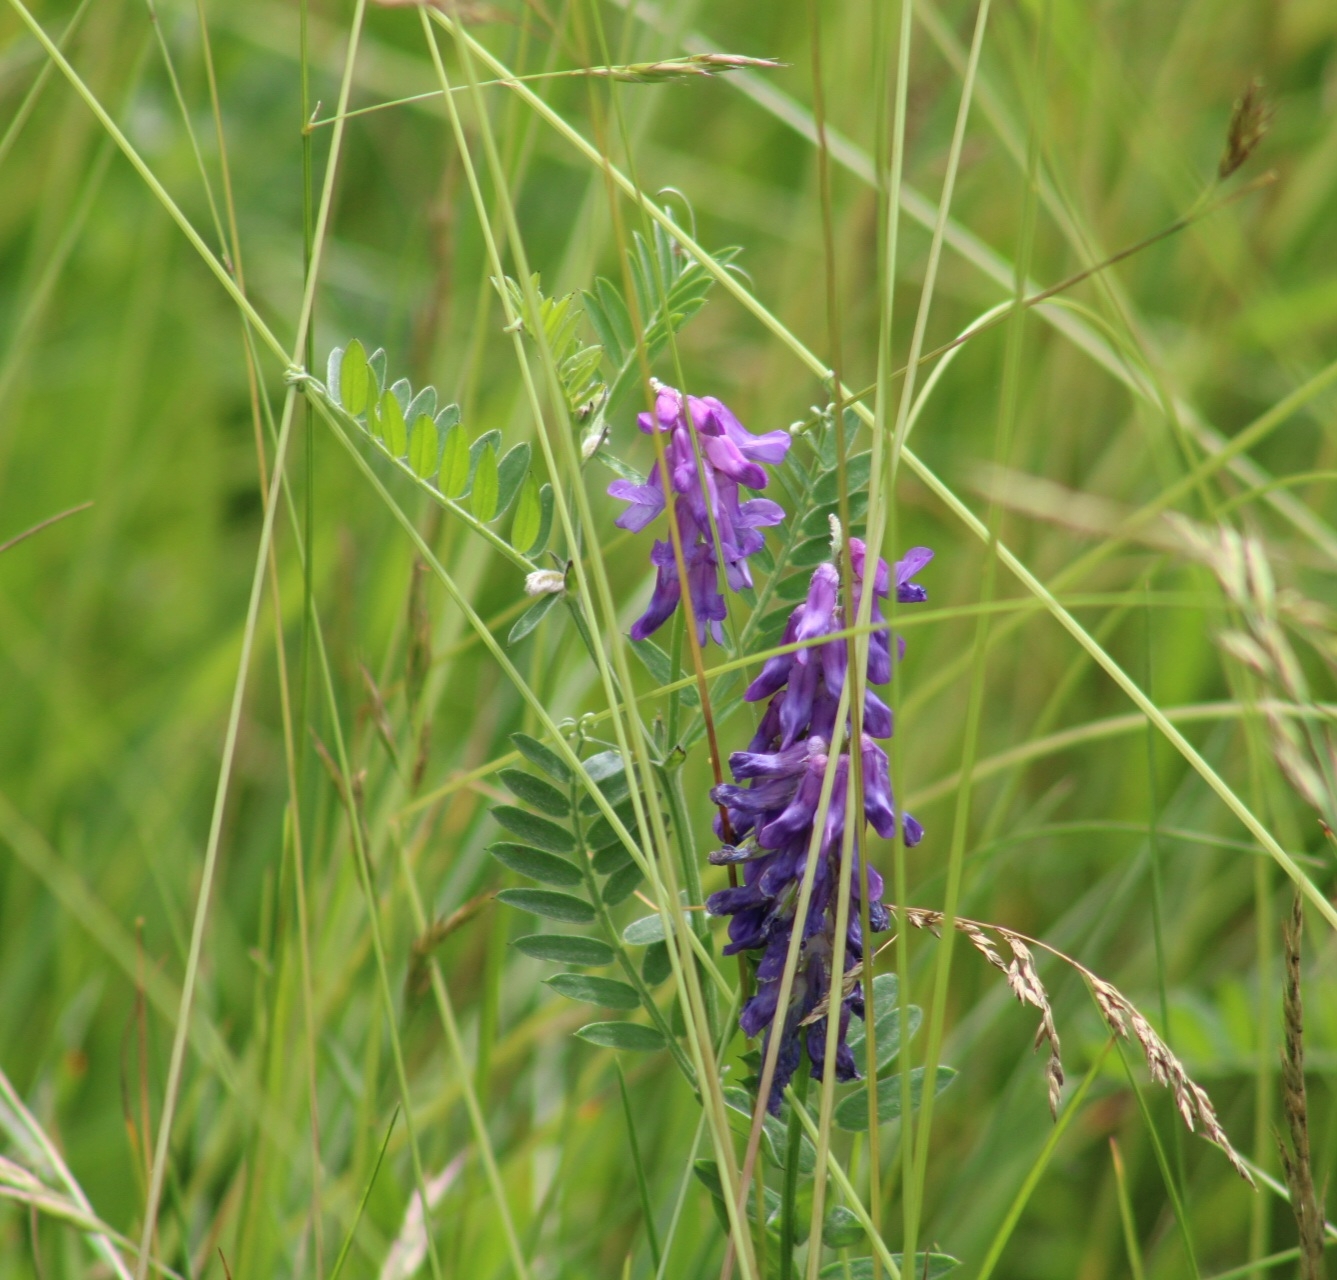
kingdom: Plantae
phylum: Tracheophyta
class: Magnoliopsida
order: Fabales
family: Fabaceae
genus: Vicia
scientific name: Vicia cracca
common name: Bird vetch
